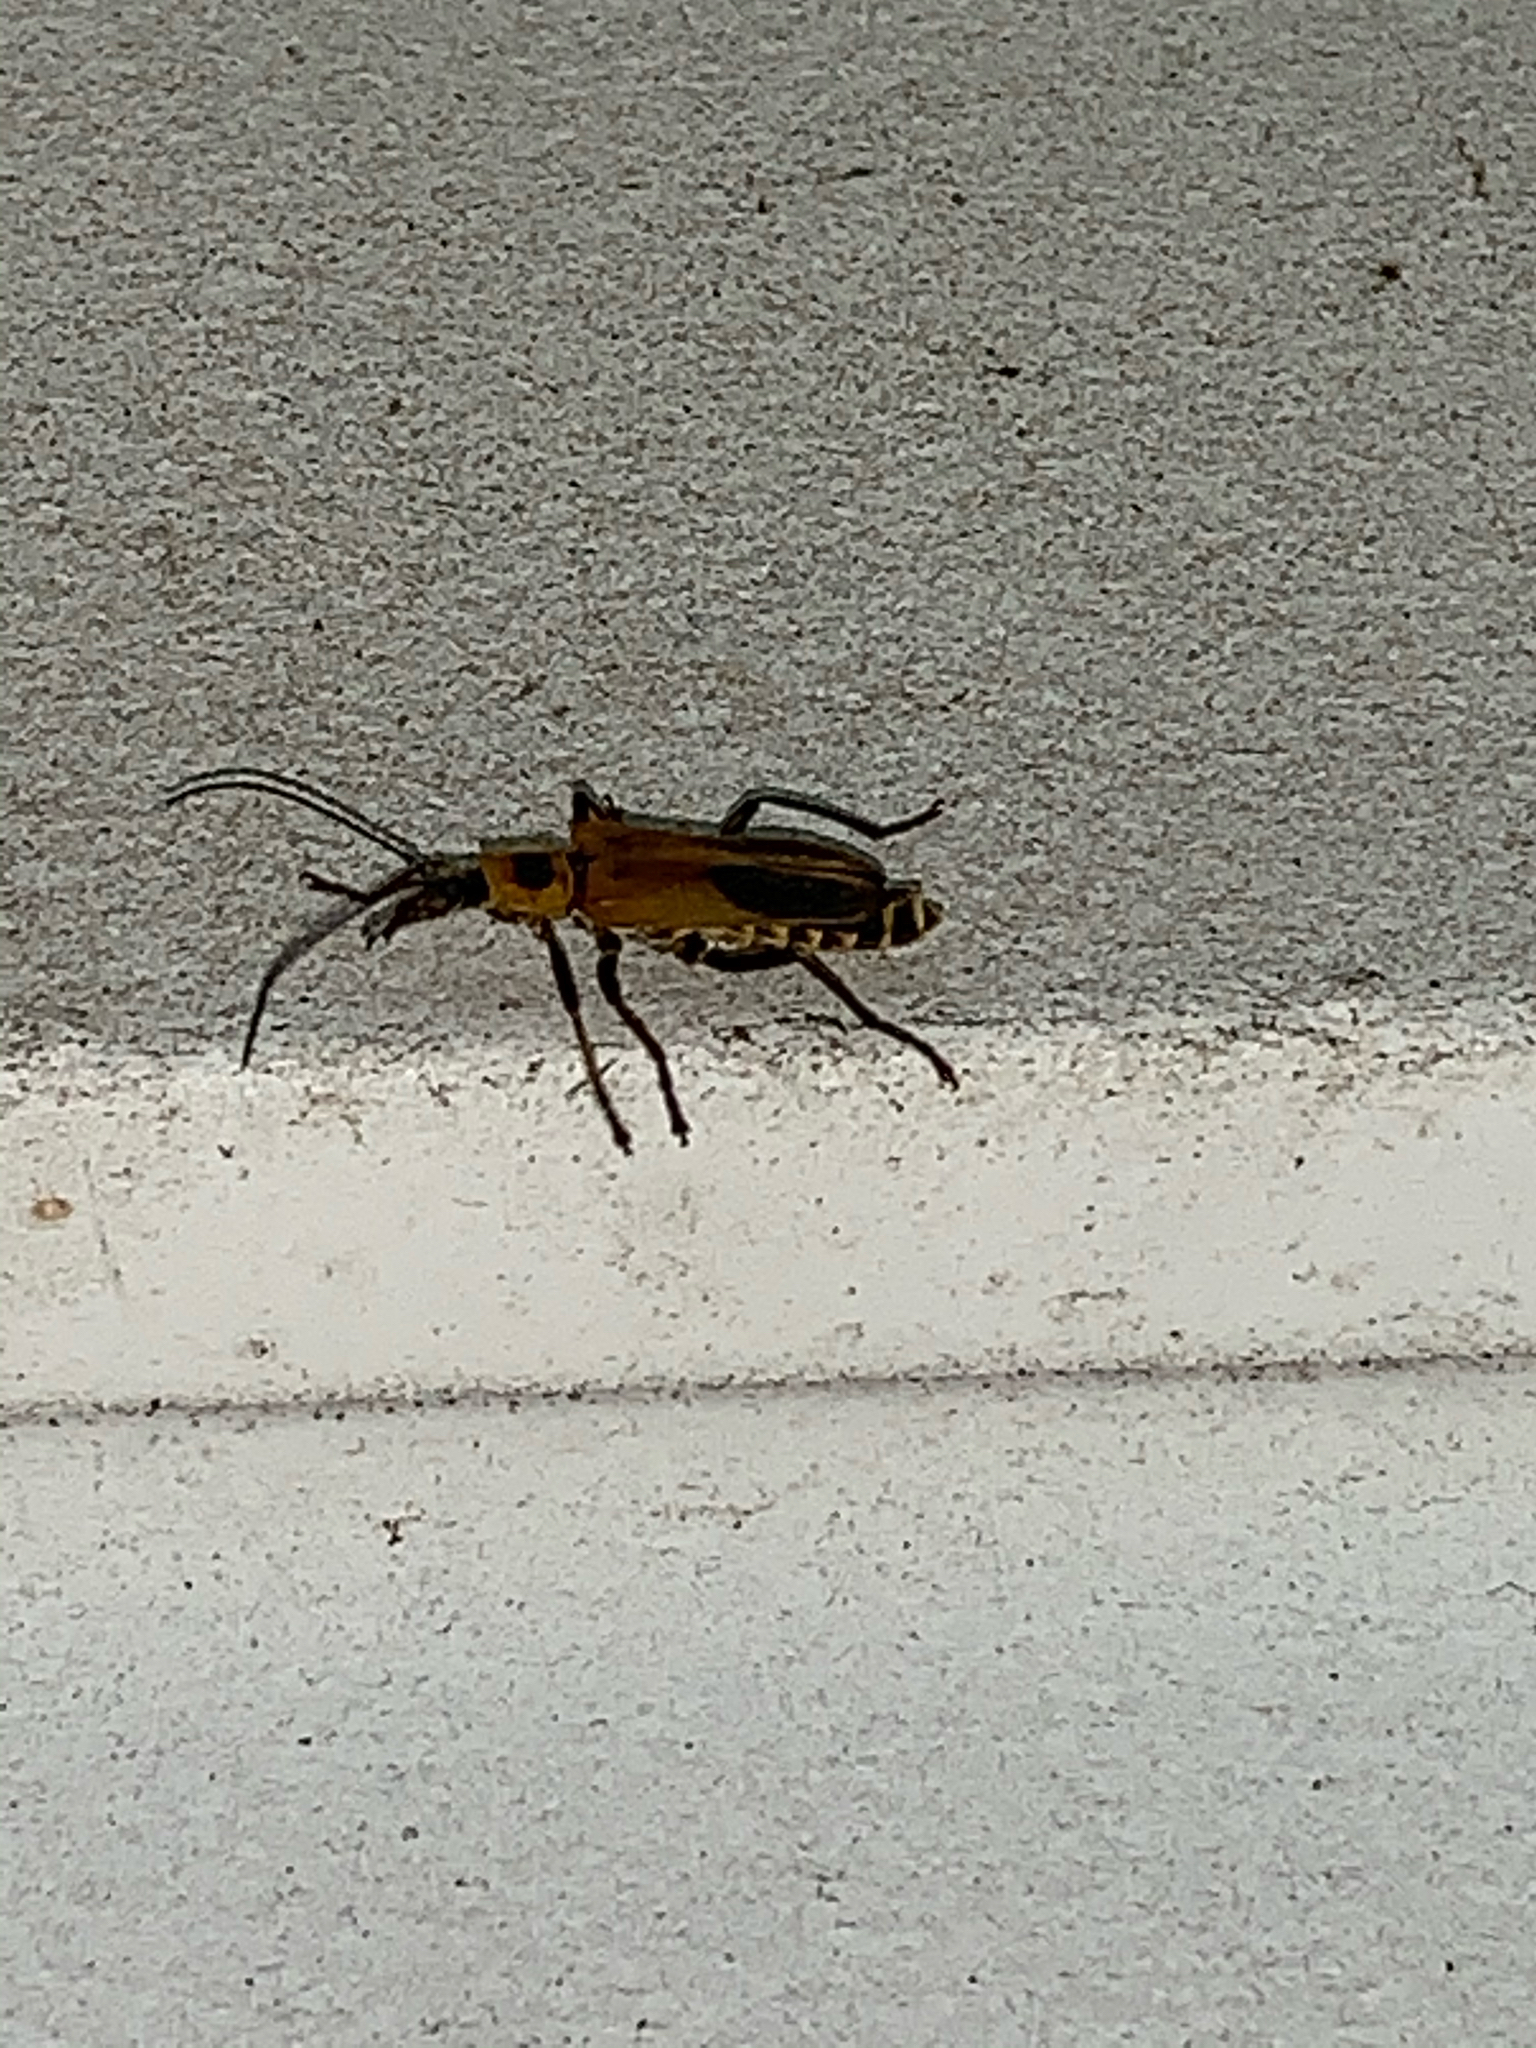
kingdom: Animalia
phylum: Arthropoda
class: Insecta
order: Coleoptera
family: Cantharidae
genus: Chauliognathus
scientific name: Chauliognathus pensylvanicus
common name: Goldenrod soldier beetle
